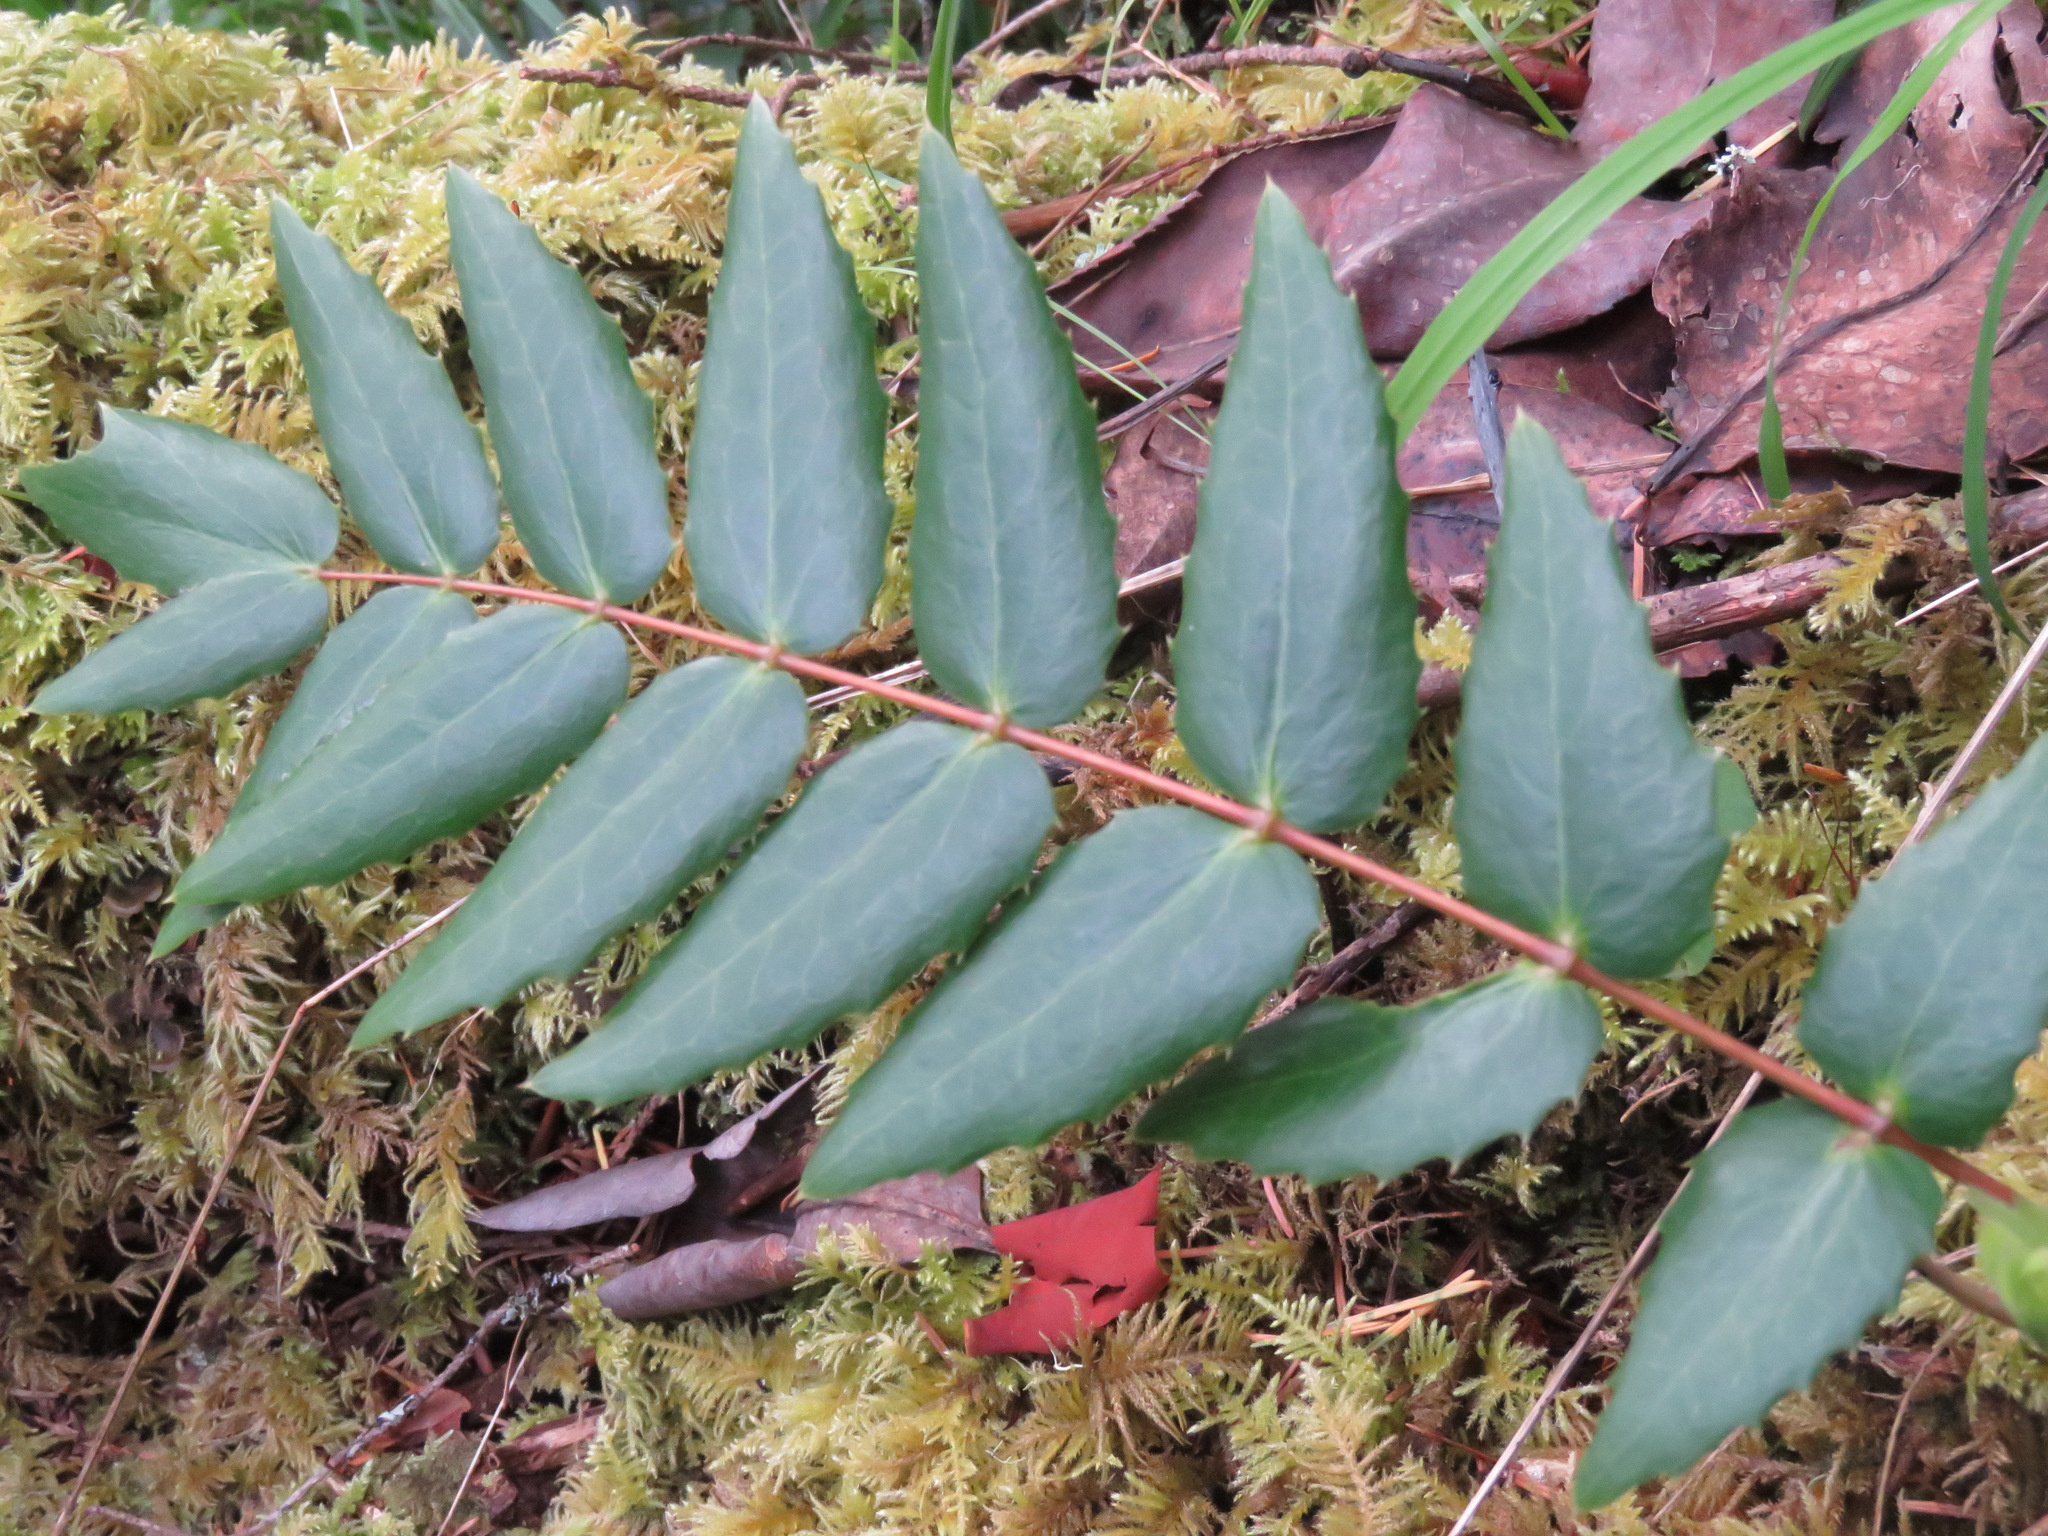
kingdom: Plantae
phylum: Tracheophyta
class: Magnoliopsida
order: Ranunculales
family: Berberidaceae
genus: Mahonia
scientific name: Mahonia nervosa
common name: Cascade oregon-grape
